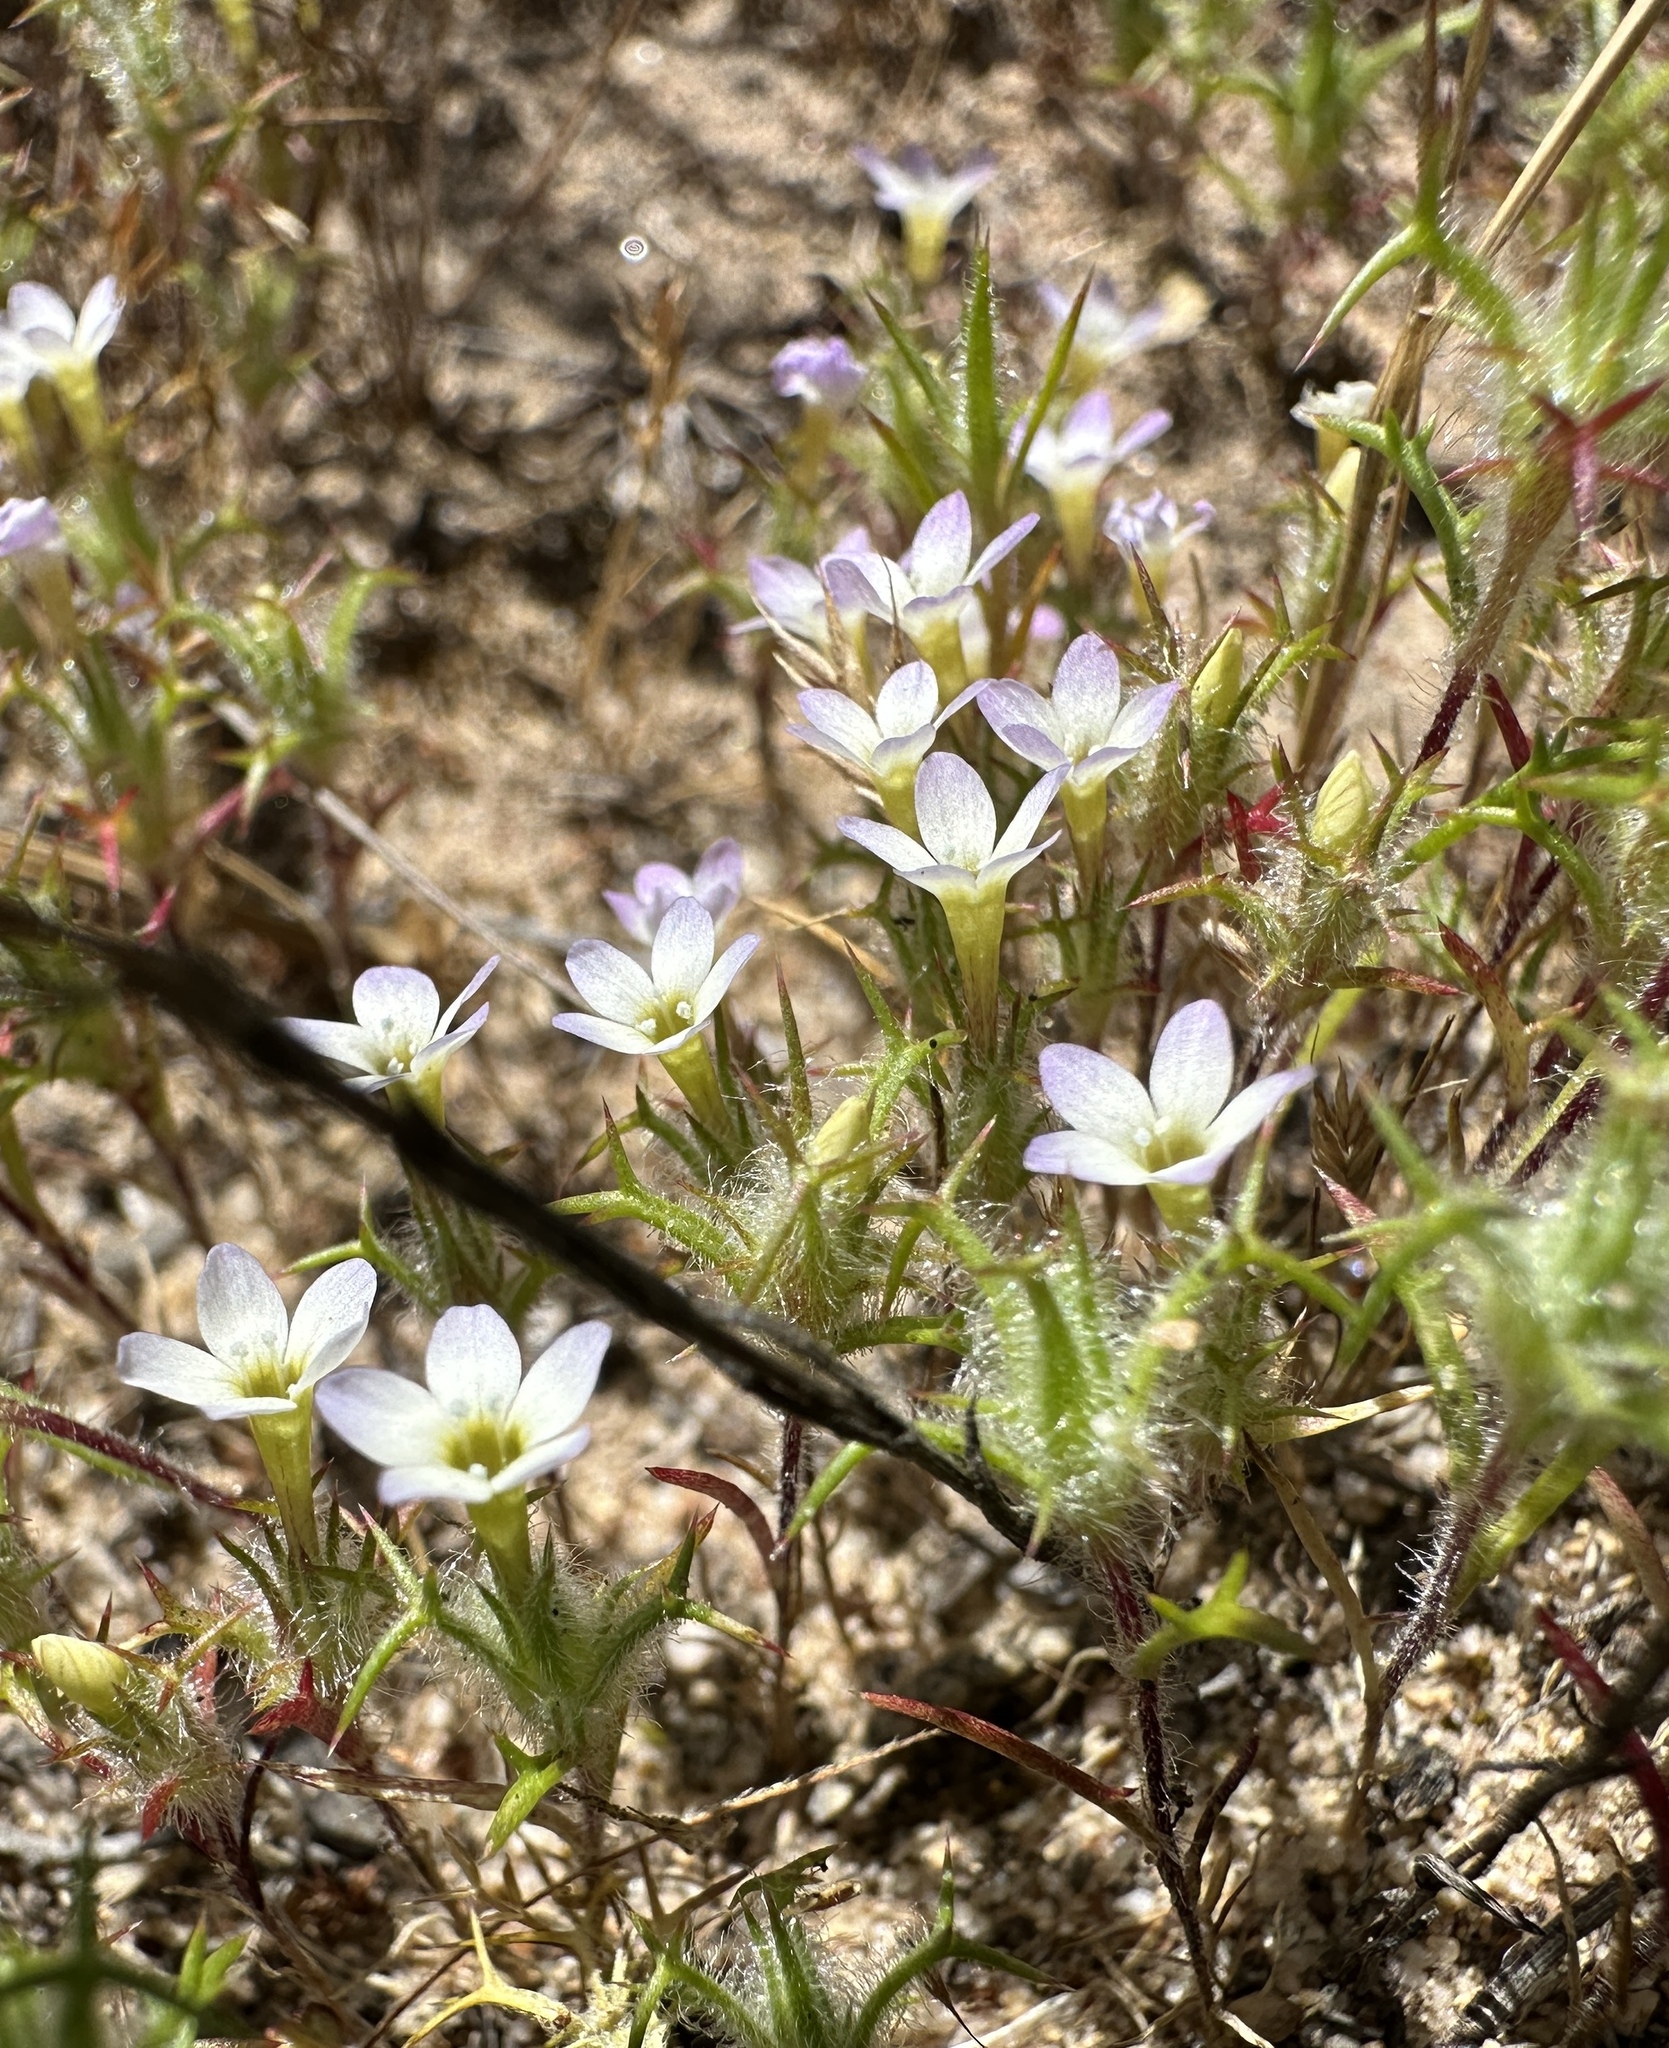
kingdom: Plantae
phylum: Tracheophyta
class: Magnoliopsida
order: Ericales
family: Polemoniaceae
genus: Navarretia
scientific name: Navarretia hamata
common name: Hooked navarretia
